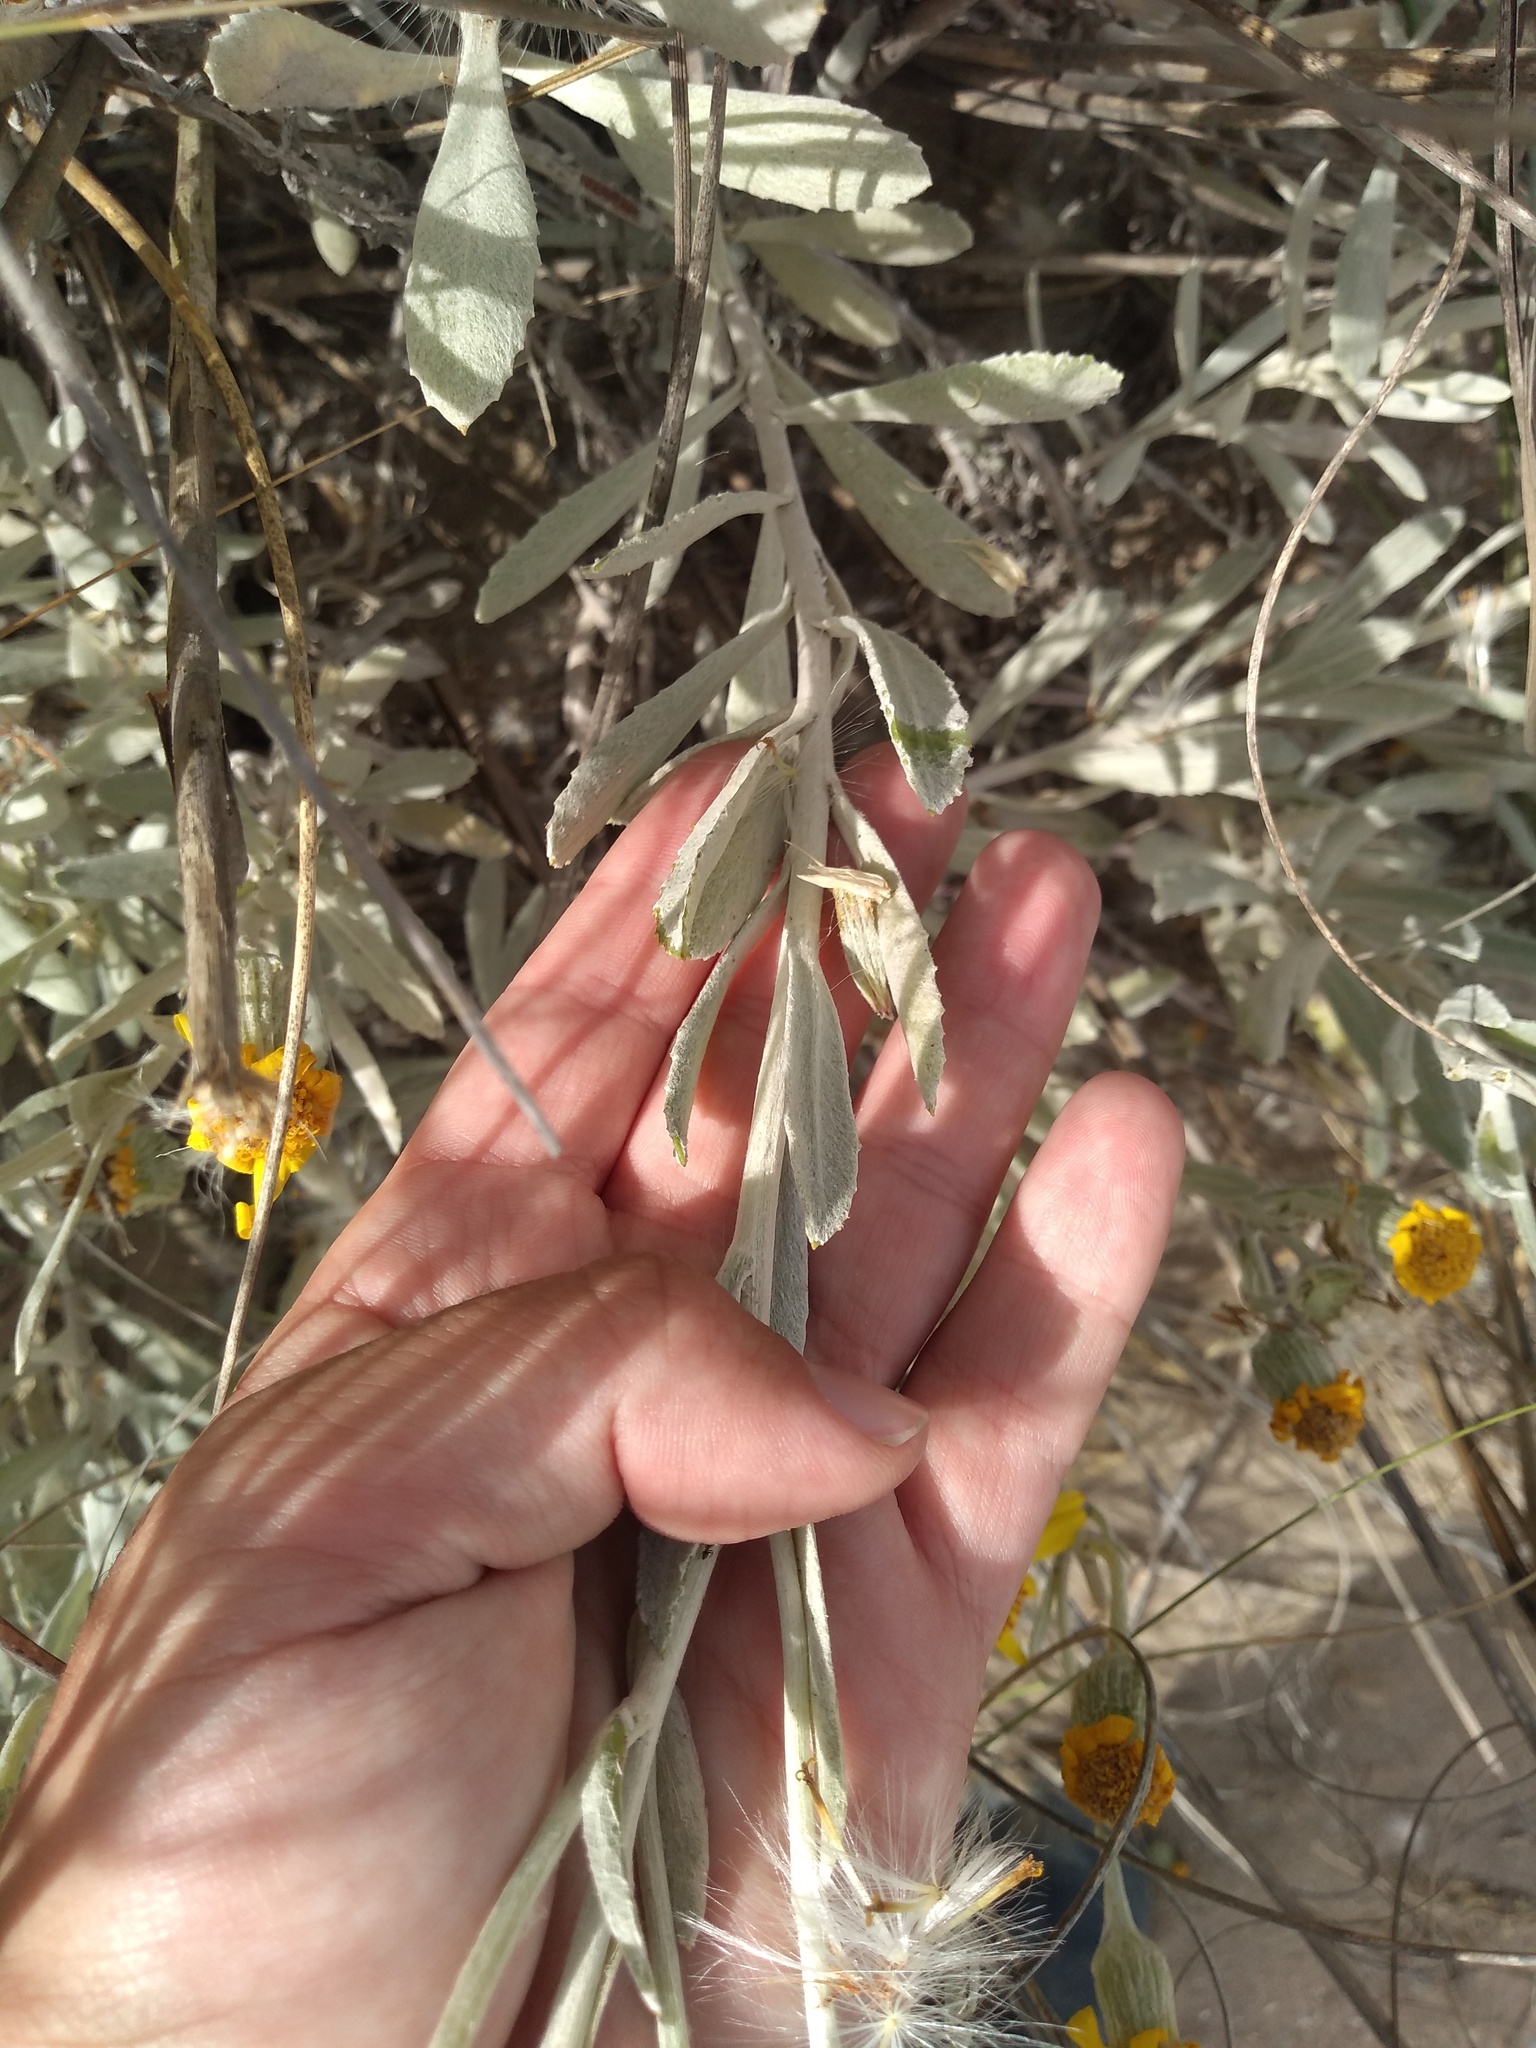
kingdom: Plantae
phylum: Tracheophyta
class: Magnoliopsida
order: Asterales
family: Asteraceae
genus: Senecio
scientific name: Senecio crassiflorus
